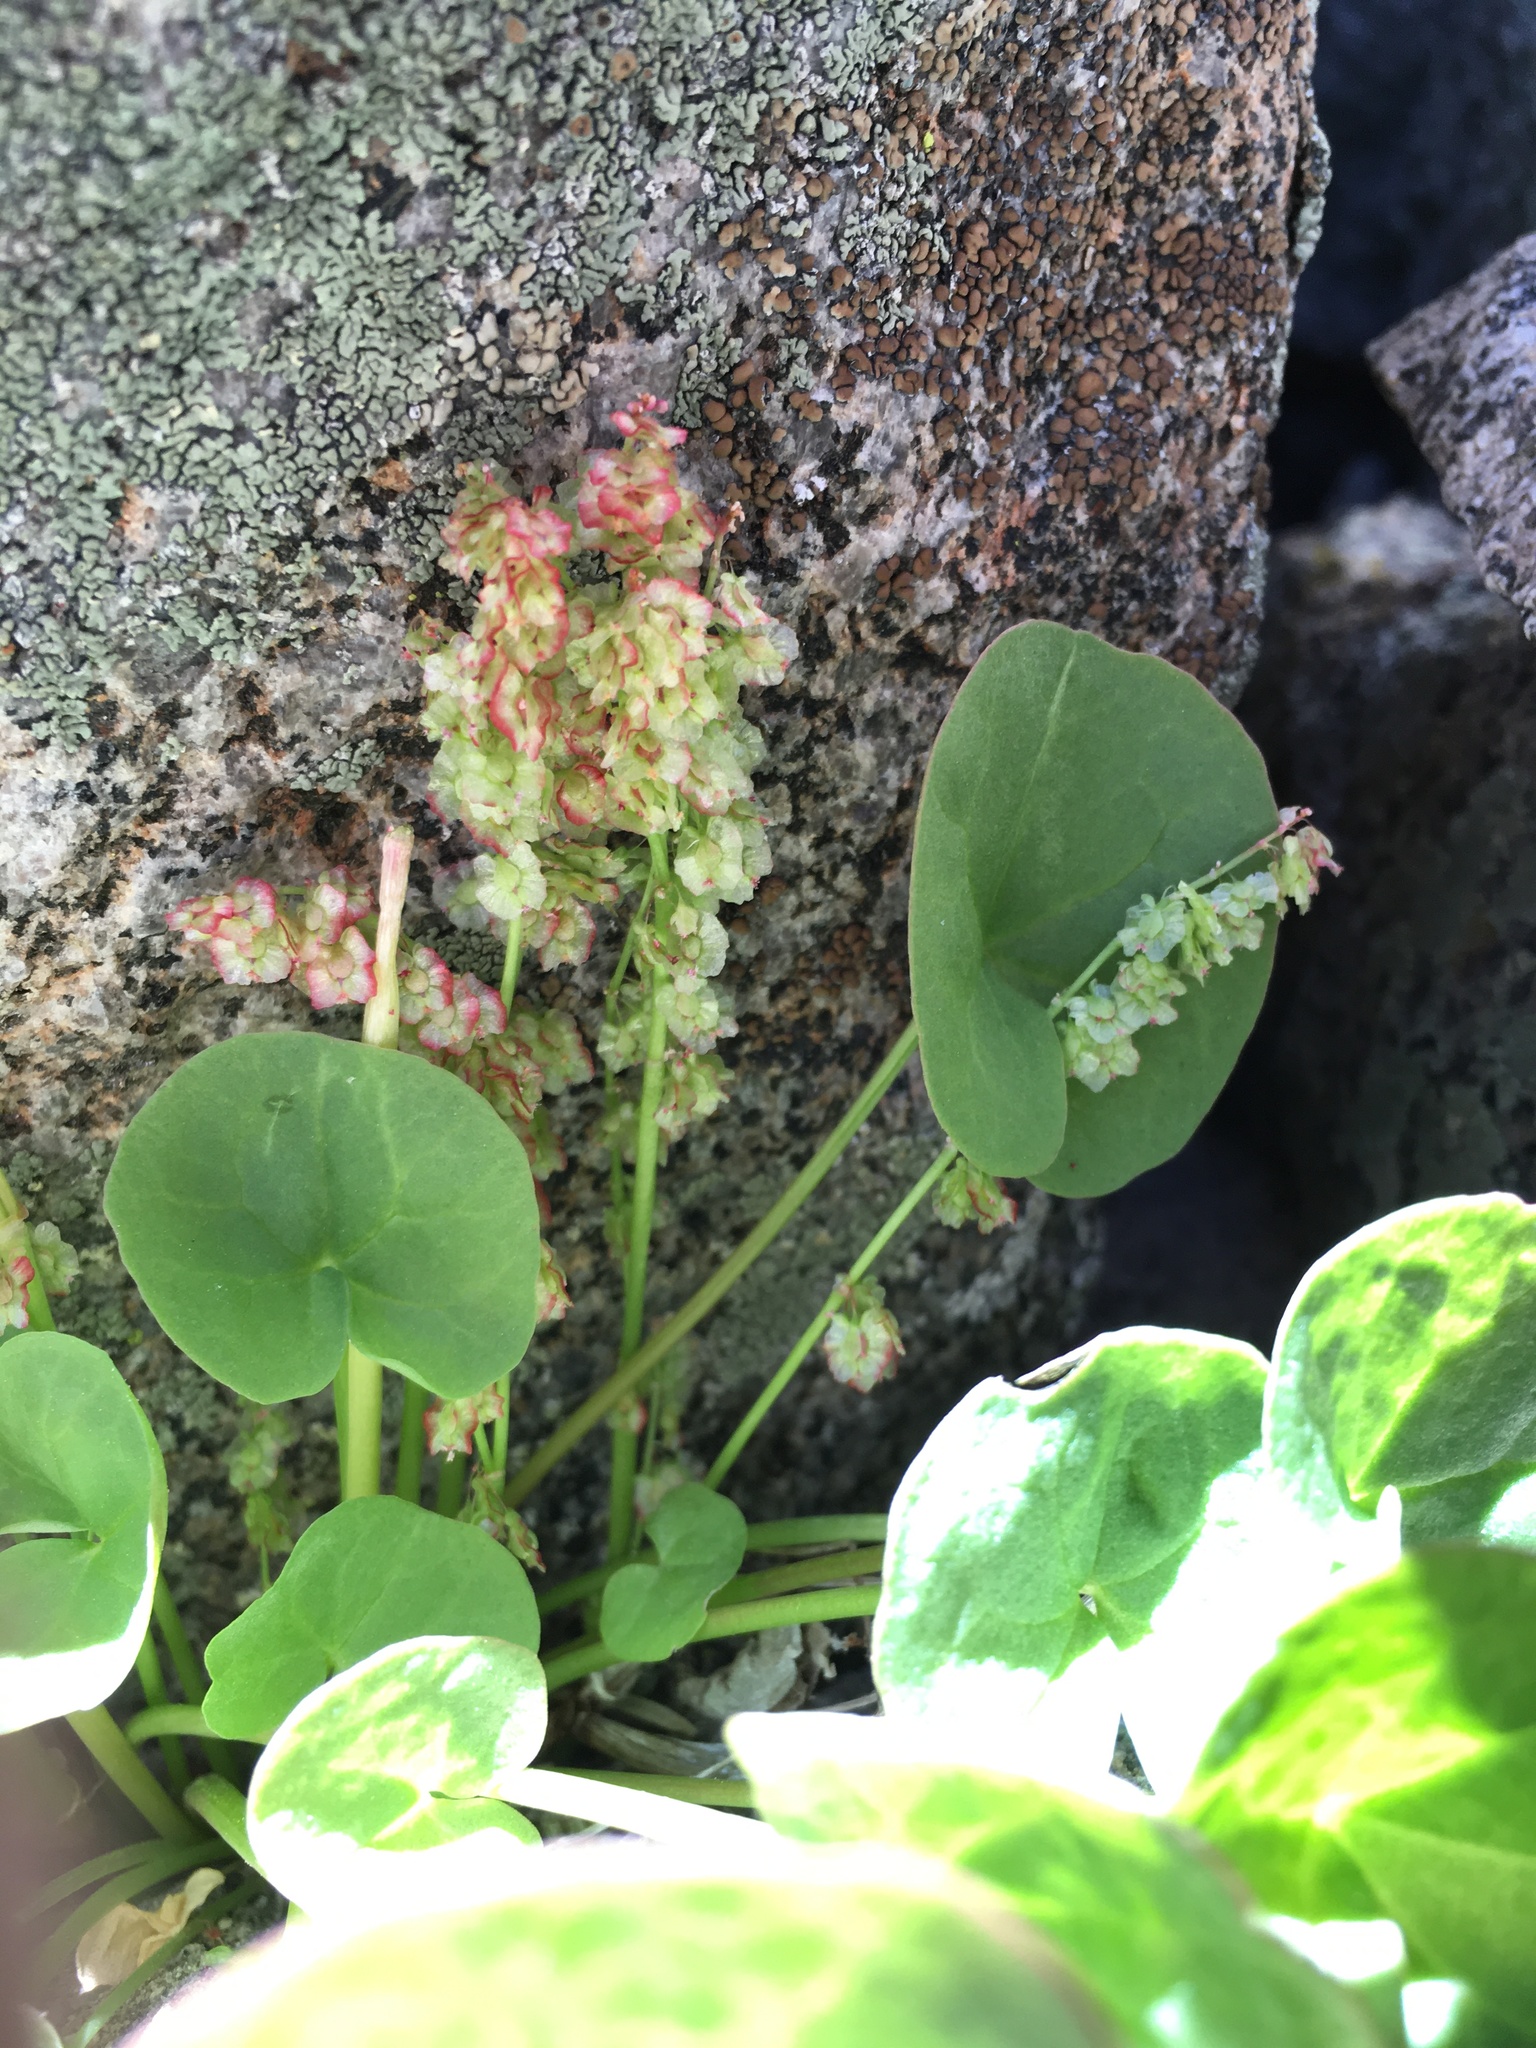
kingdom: Plantae
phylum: Tracheophyta
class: Magnoliopsida
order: Caryophyllales
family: Polygonaceae
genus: Oxyria
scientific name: Oxyria digyna
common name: Alpine mountain-sorrel
